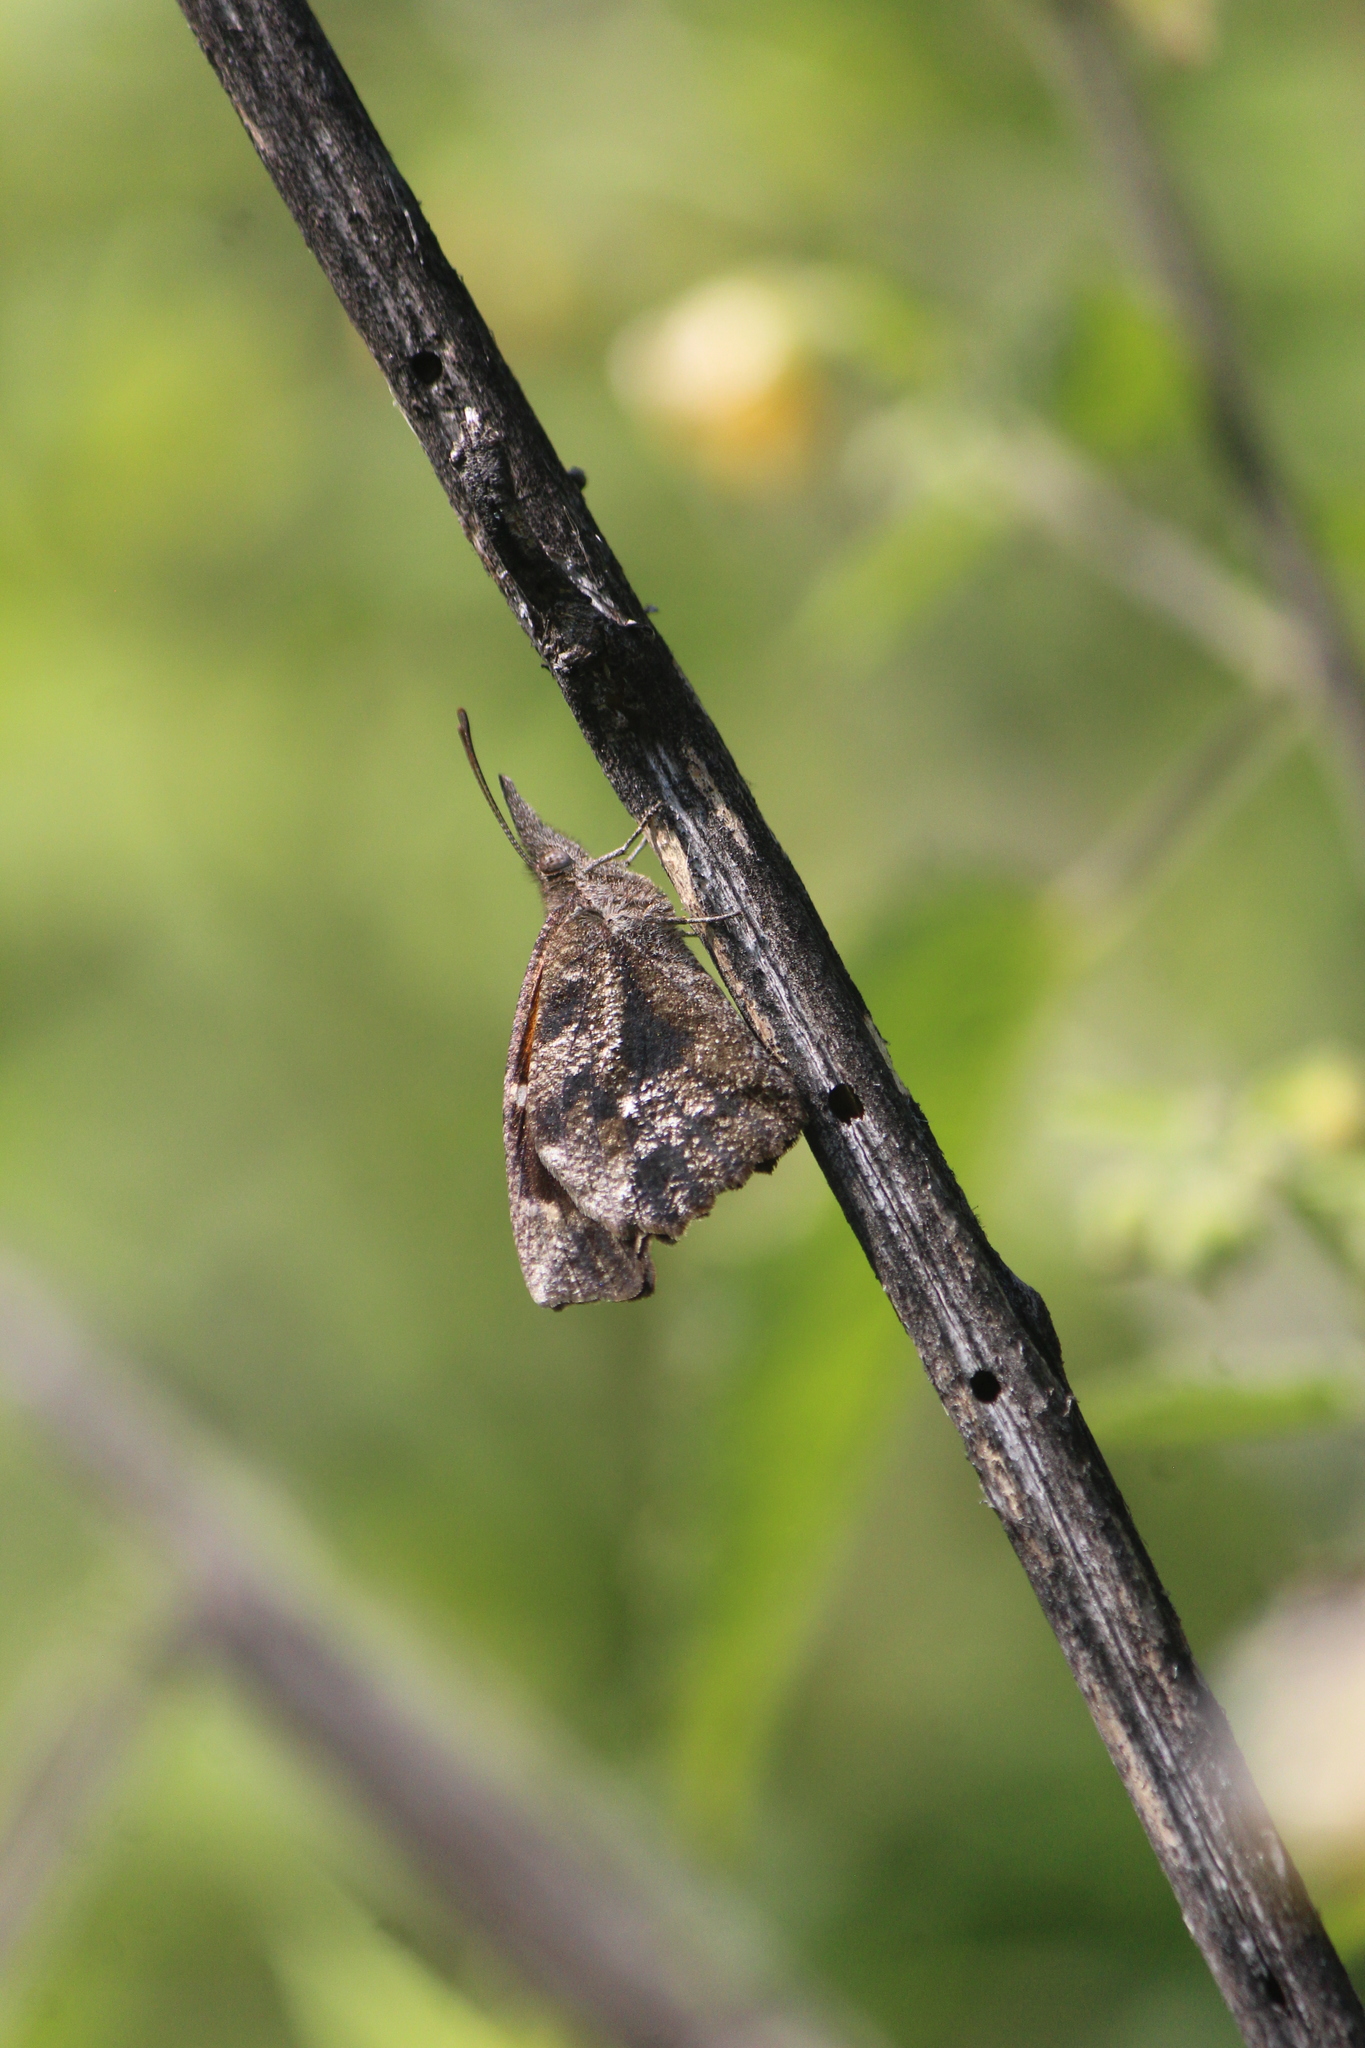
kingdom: Animalia
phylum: Arthropoda
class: Insecta
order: Lepidoptera
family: Nymphalidae
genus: Libytheana
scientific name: Libytheana carinenta
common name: American snout
